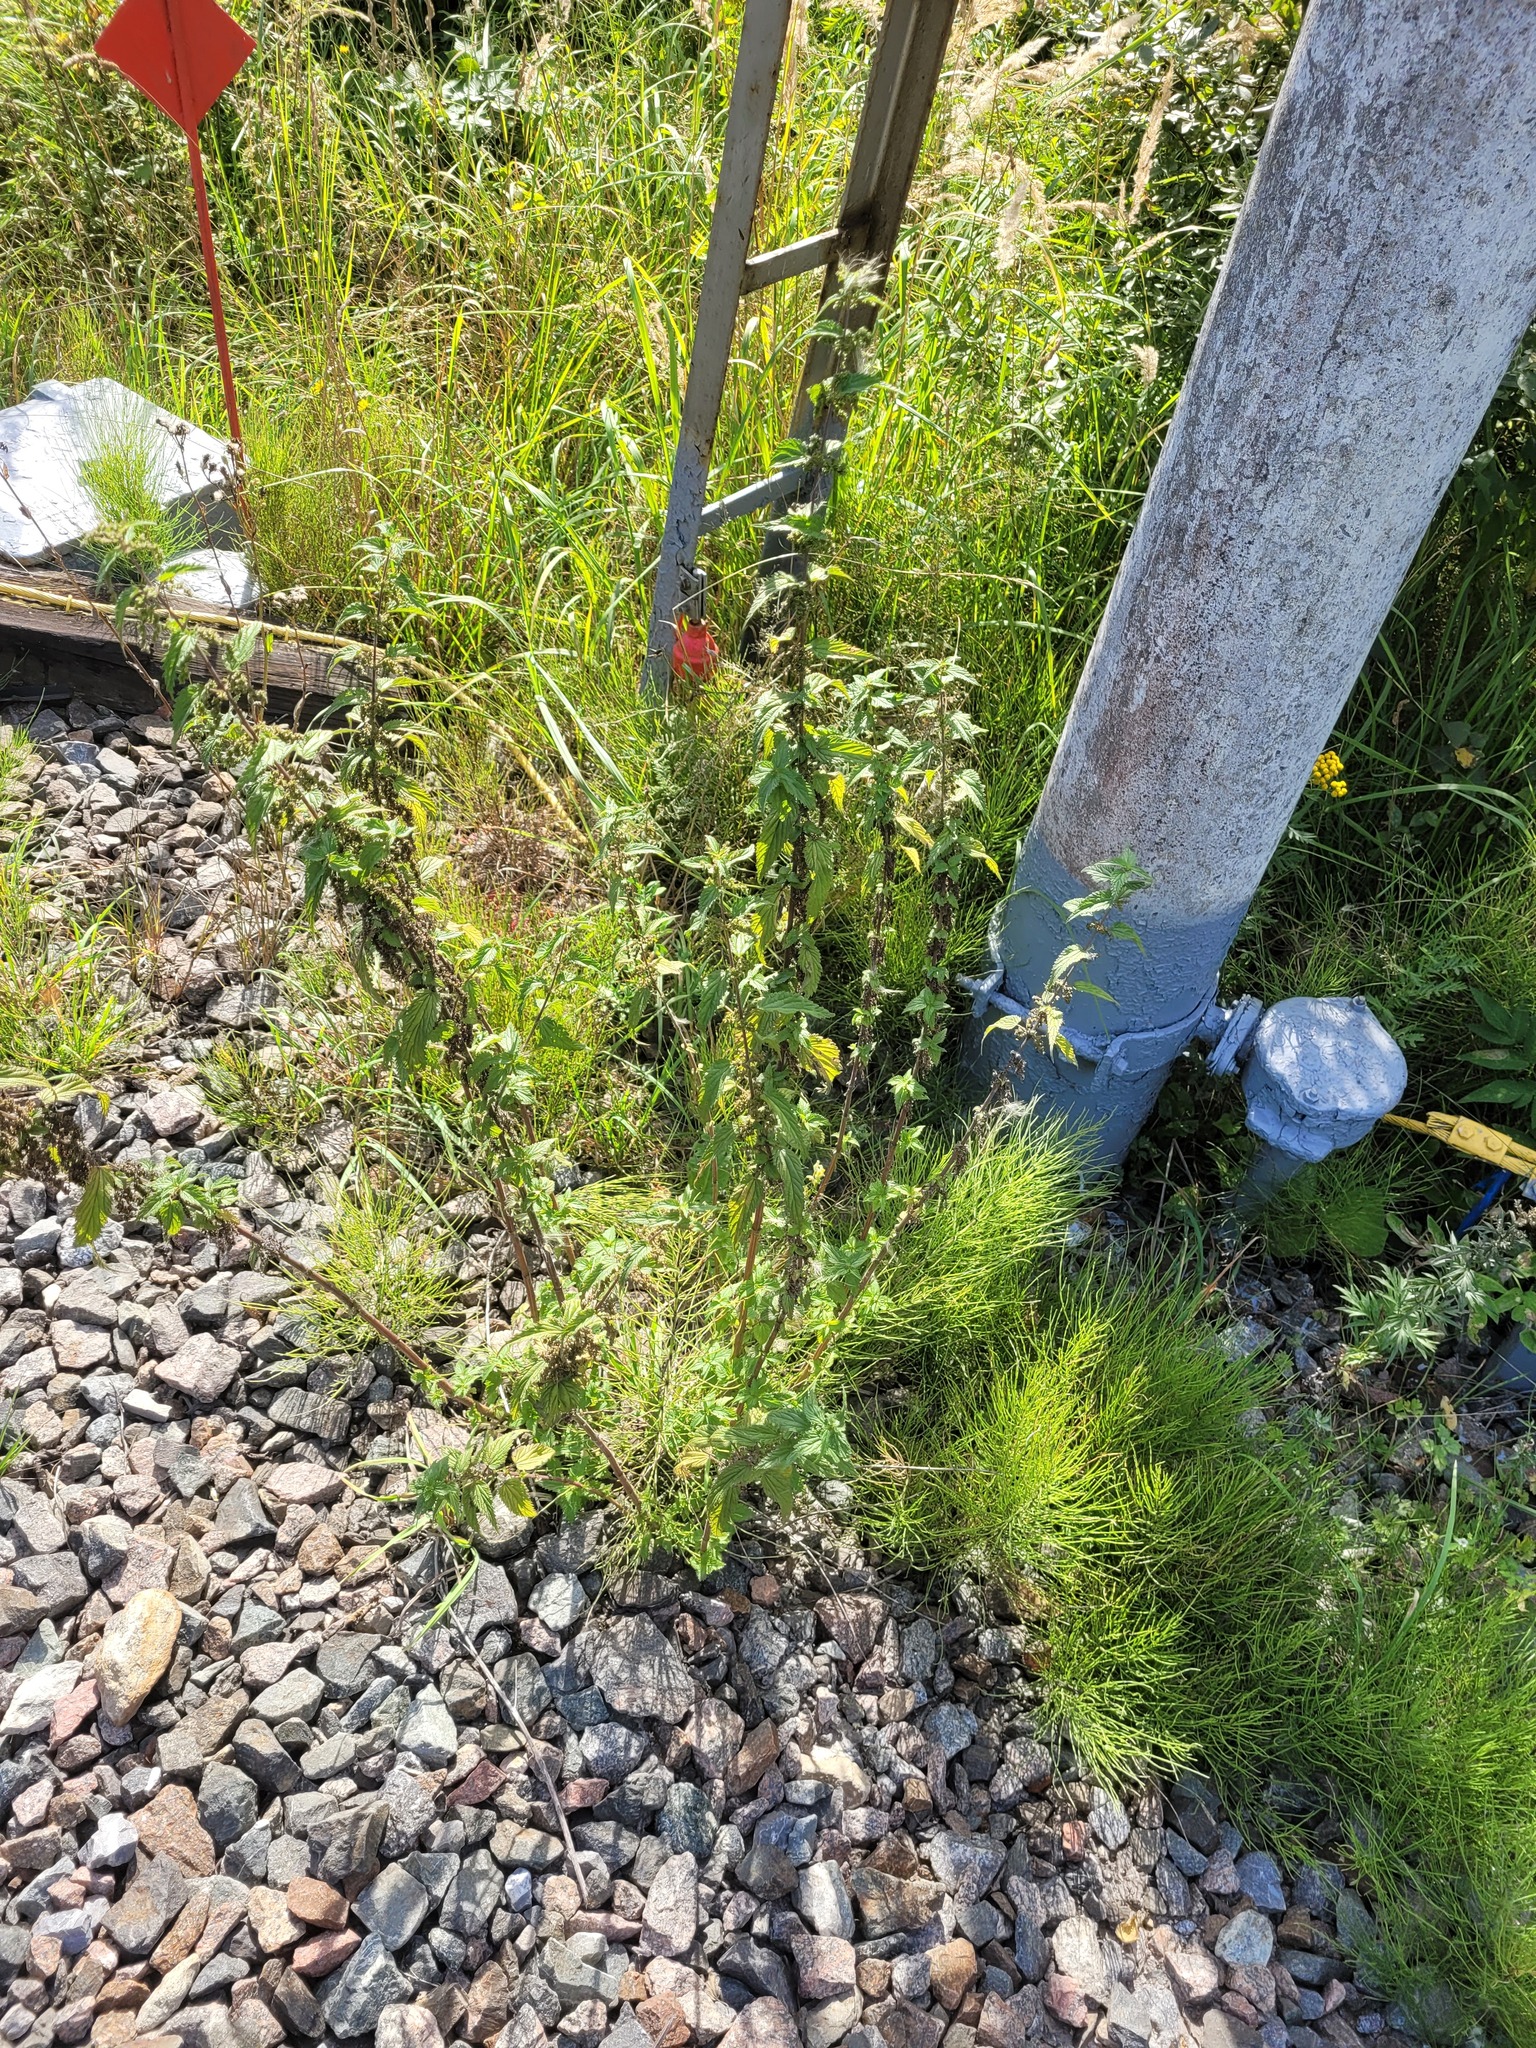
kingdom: Plantae
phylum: Tracheophyta
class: Magnoliopsida
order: Rosales
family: Urticaceae
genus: Urtica
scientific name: Urtica dioica
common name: Common nettle
